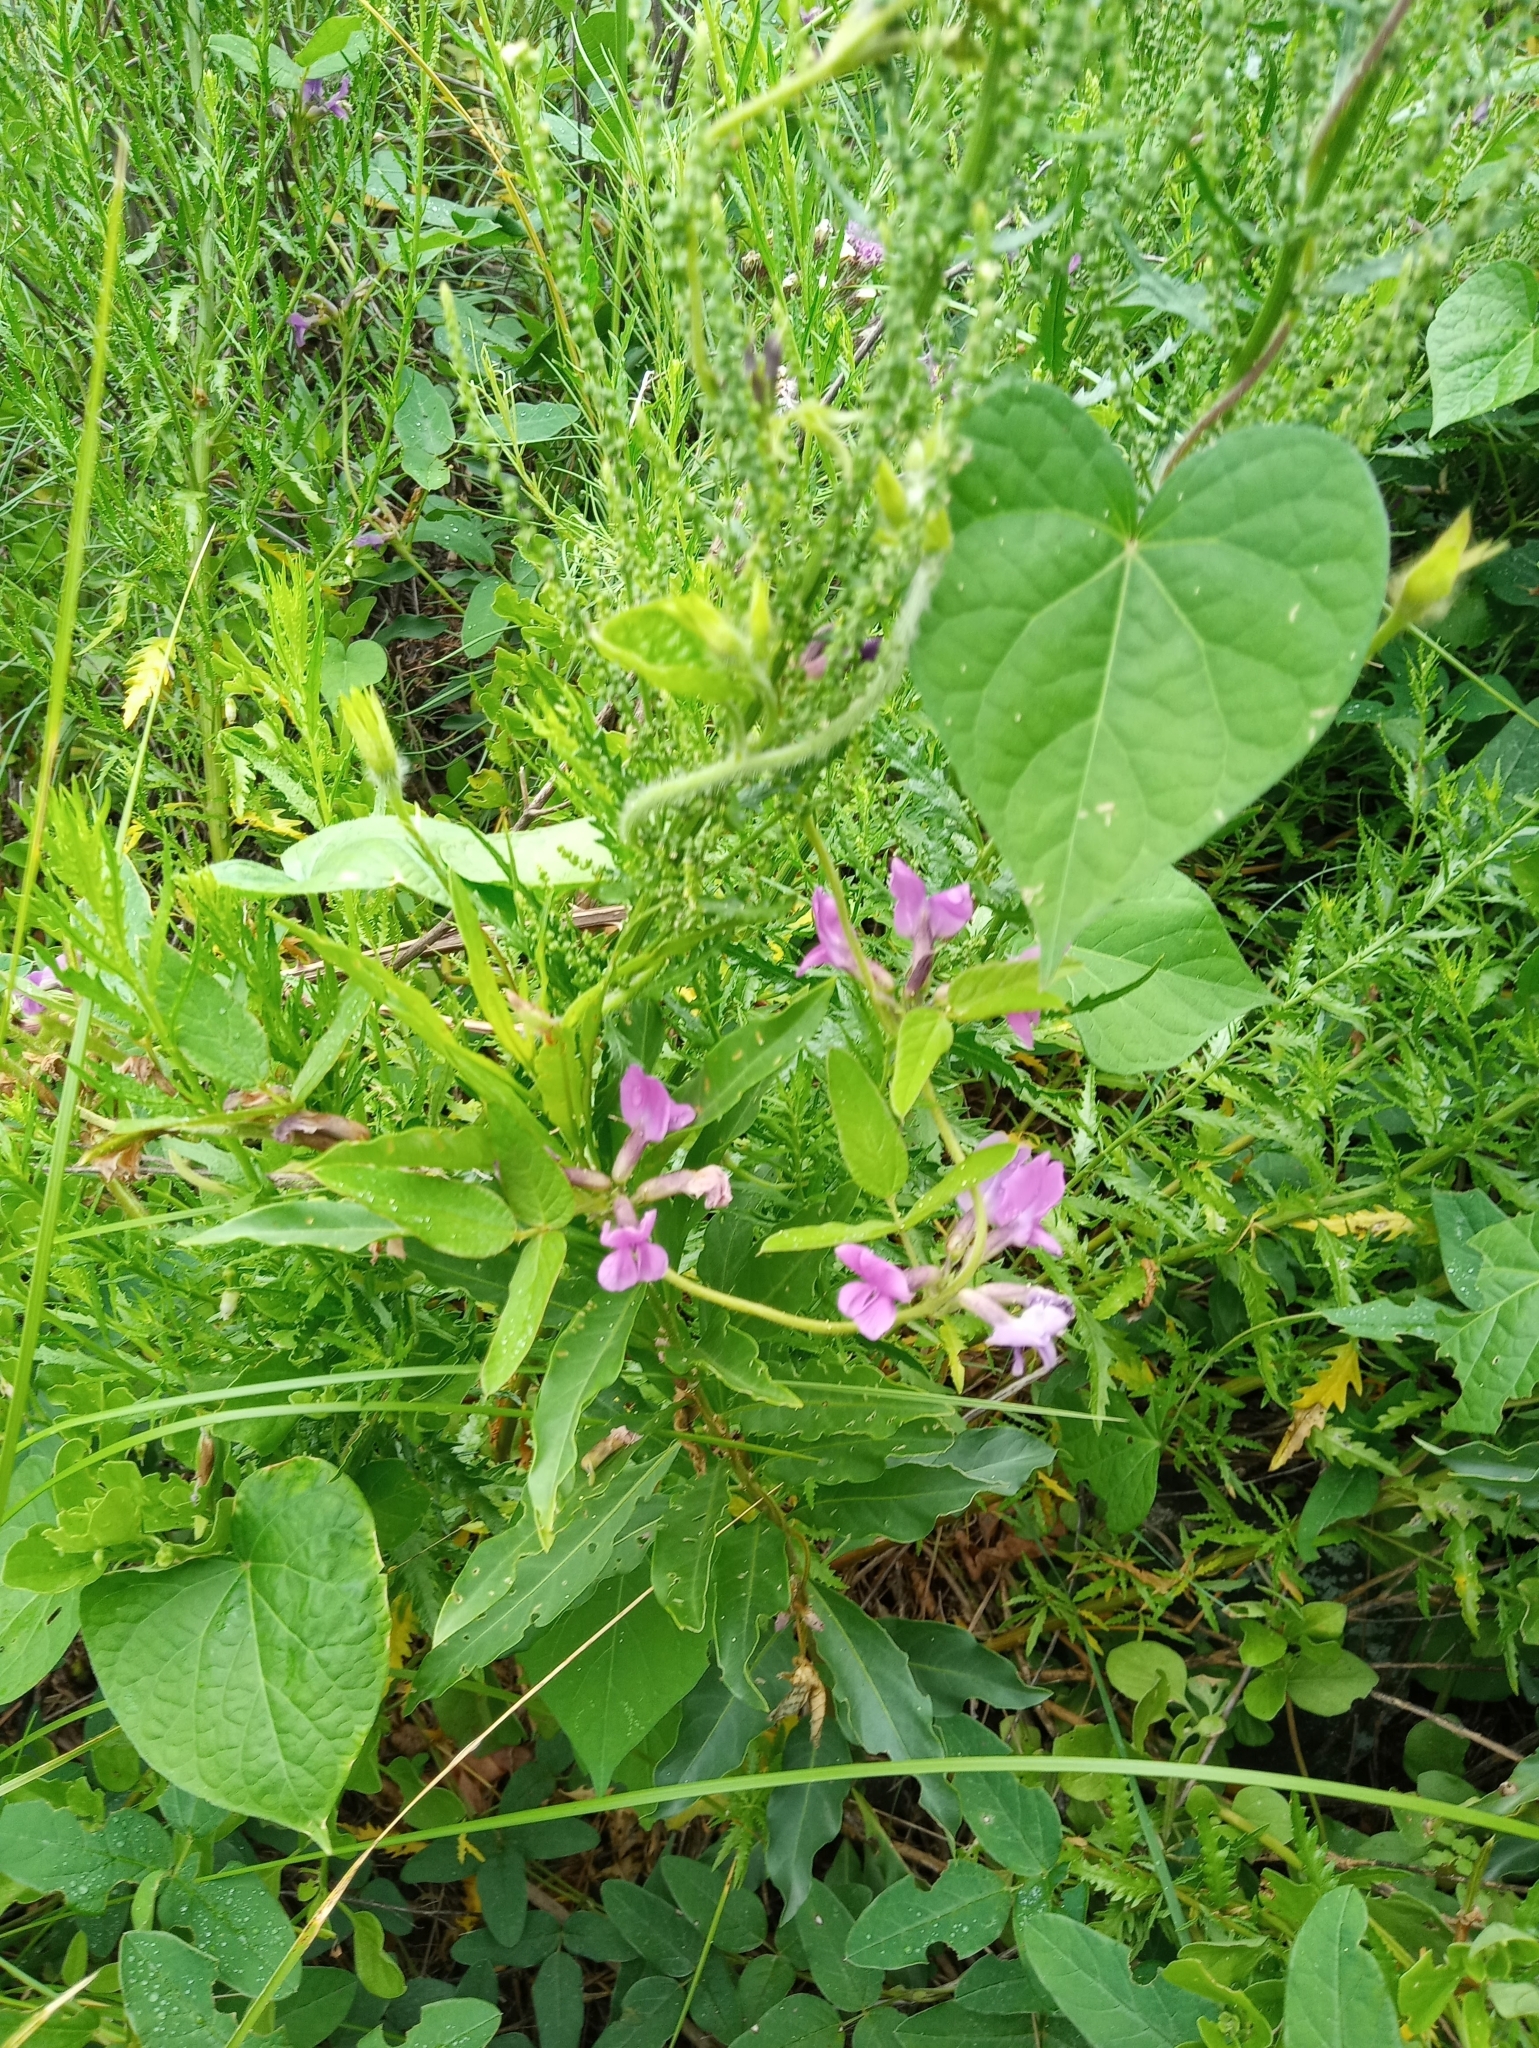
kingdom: Plantae
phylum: Tracheophyta
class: Magnoliopsida
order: Fabales
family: Fabaceae
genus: Cologania
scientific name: Cologania broussonetii
